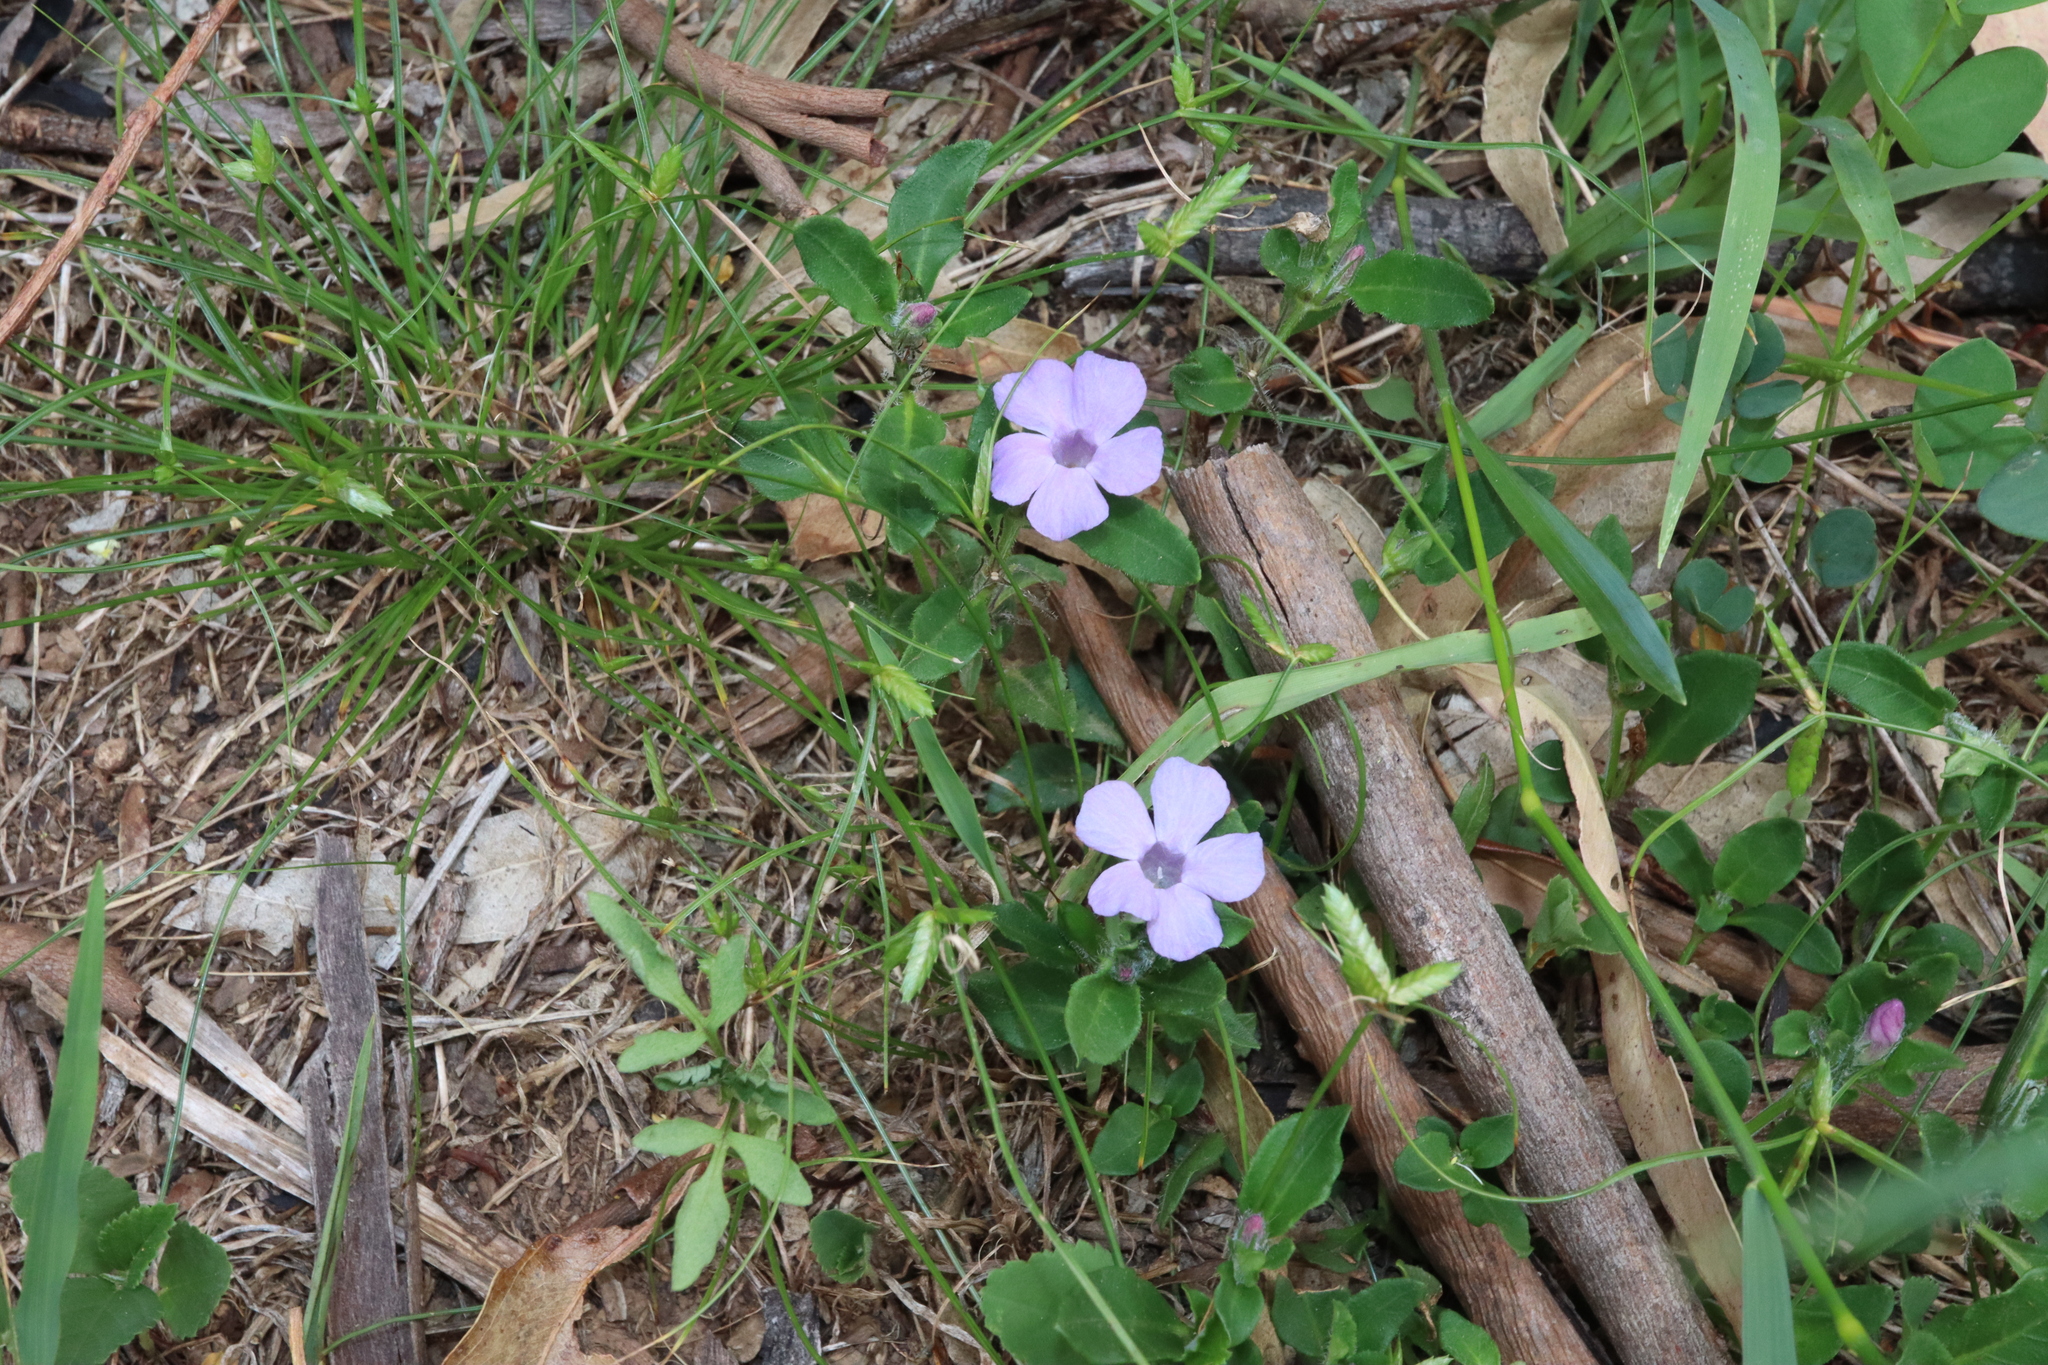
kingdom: Plantae
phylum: Tracheophyta
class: Magnoliopsida
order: Lamiales
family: Acanthaceae
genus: Brunoniella
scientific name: Brunoniella australis
